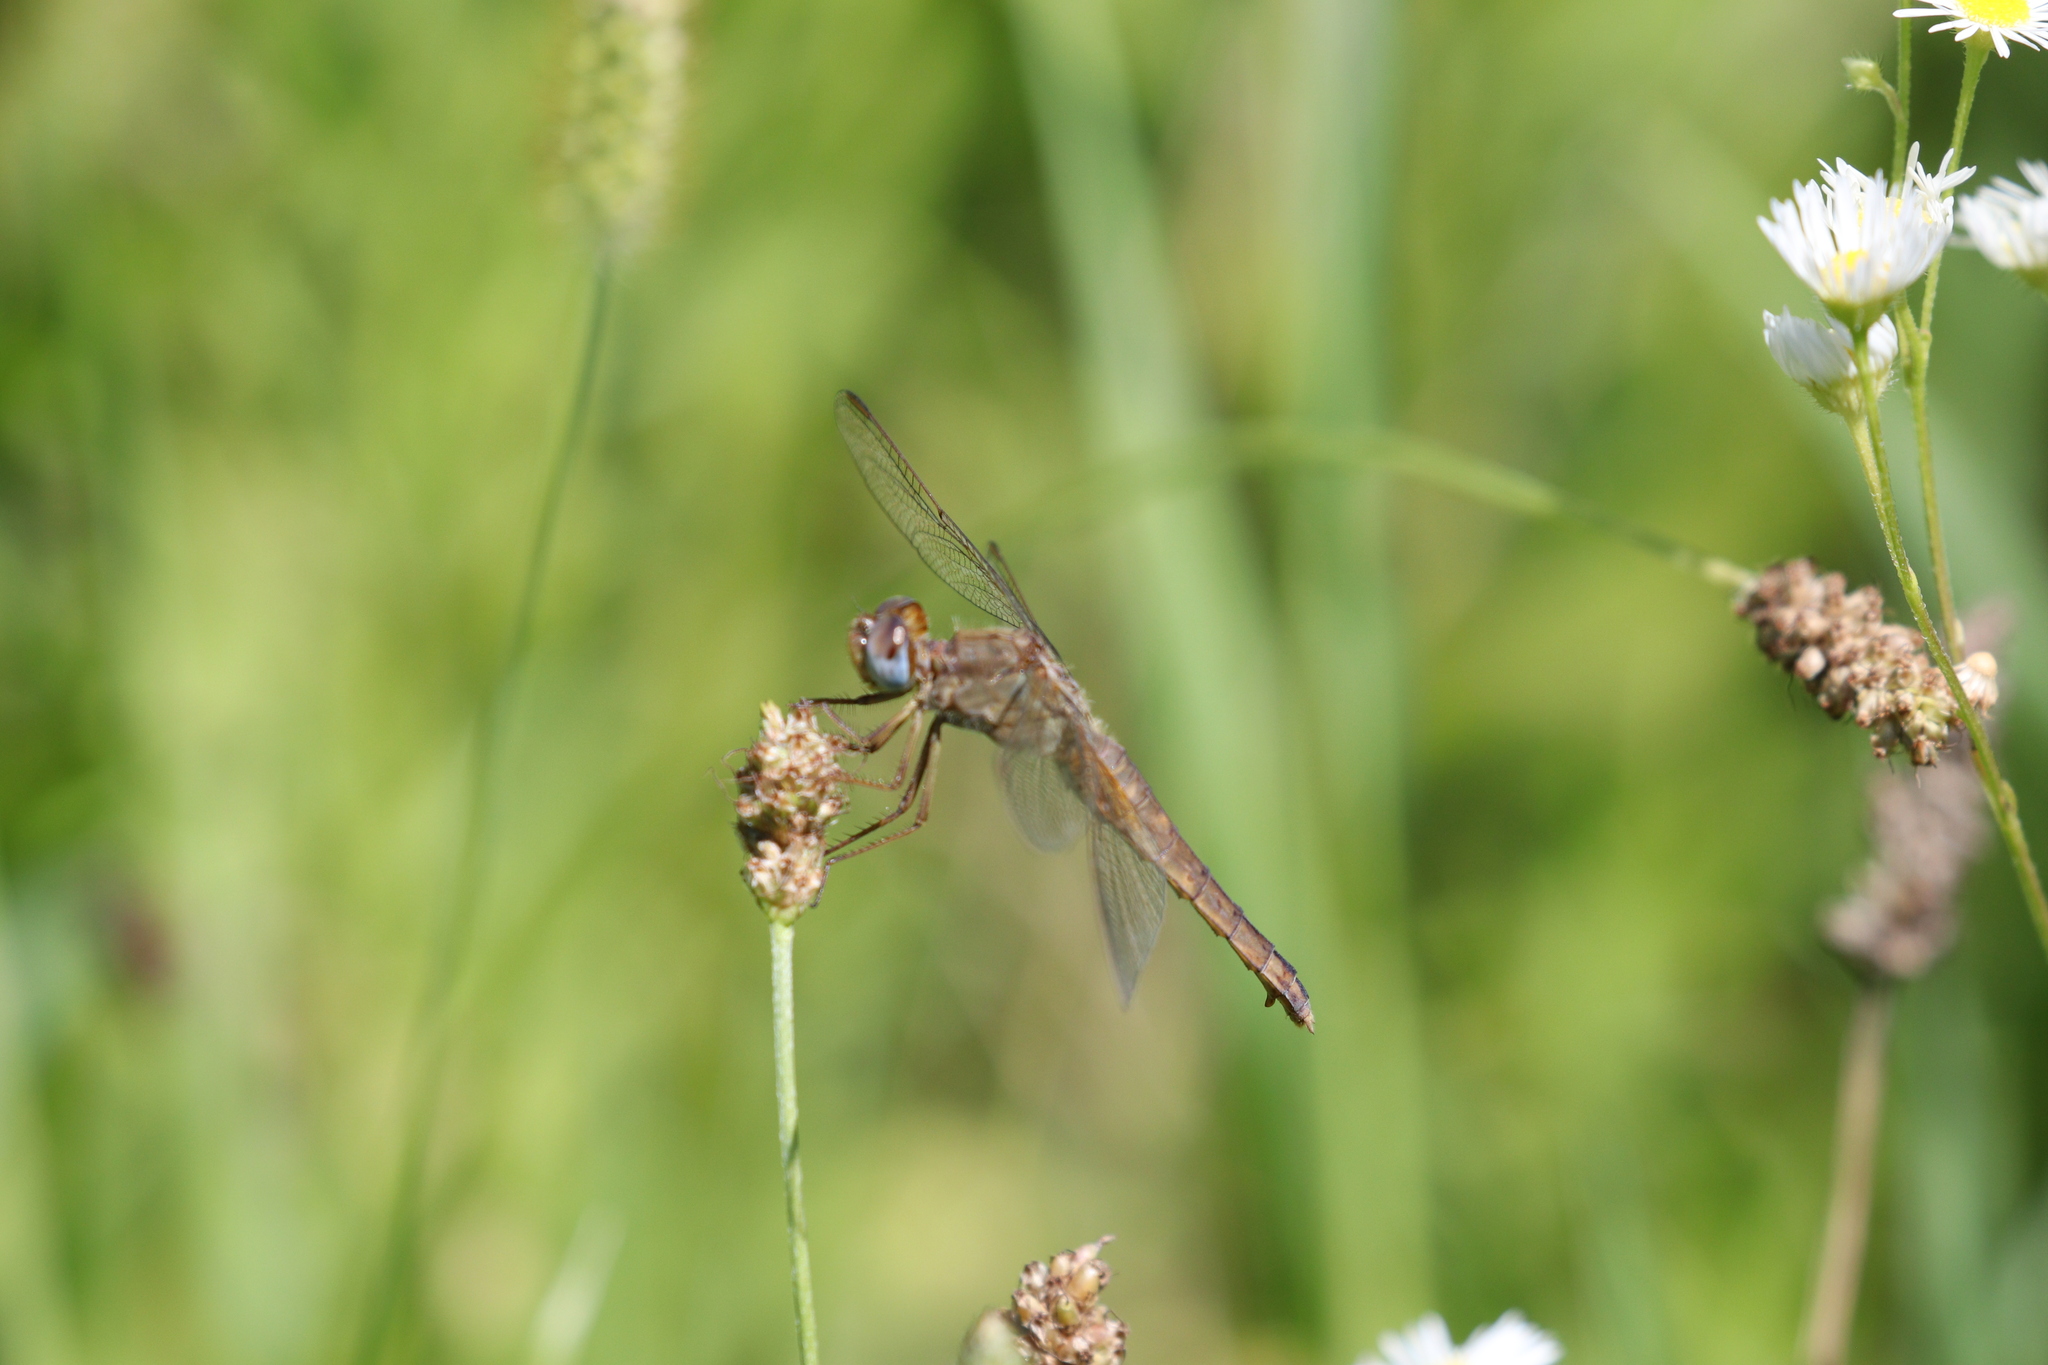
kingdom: Animalia
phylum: Arthropoda
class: Insecta
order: Odonata
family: Libellulidae
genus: Crocothemis
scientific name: Crocothemis erythraea
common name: Scarlet dragonfly
